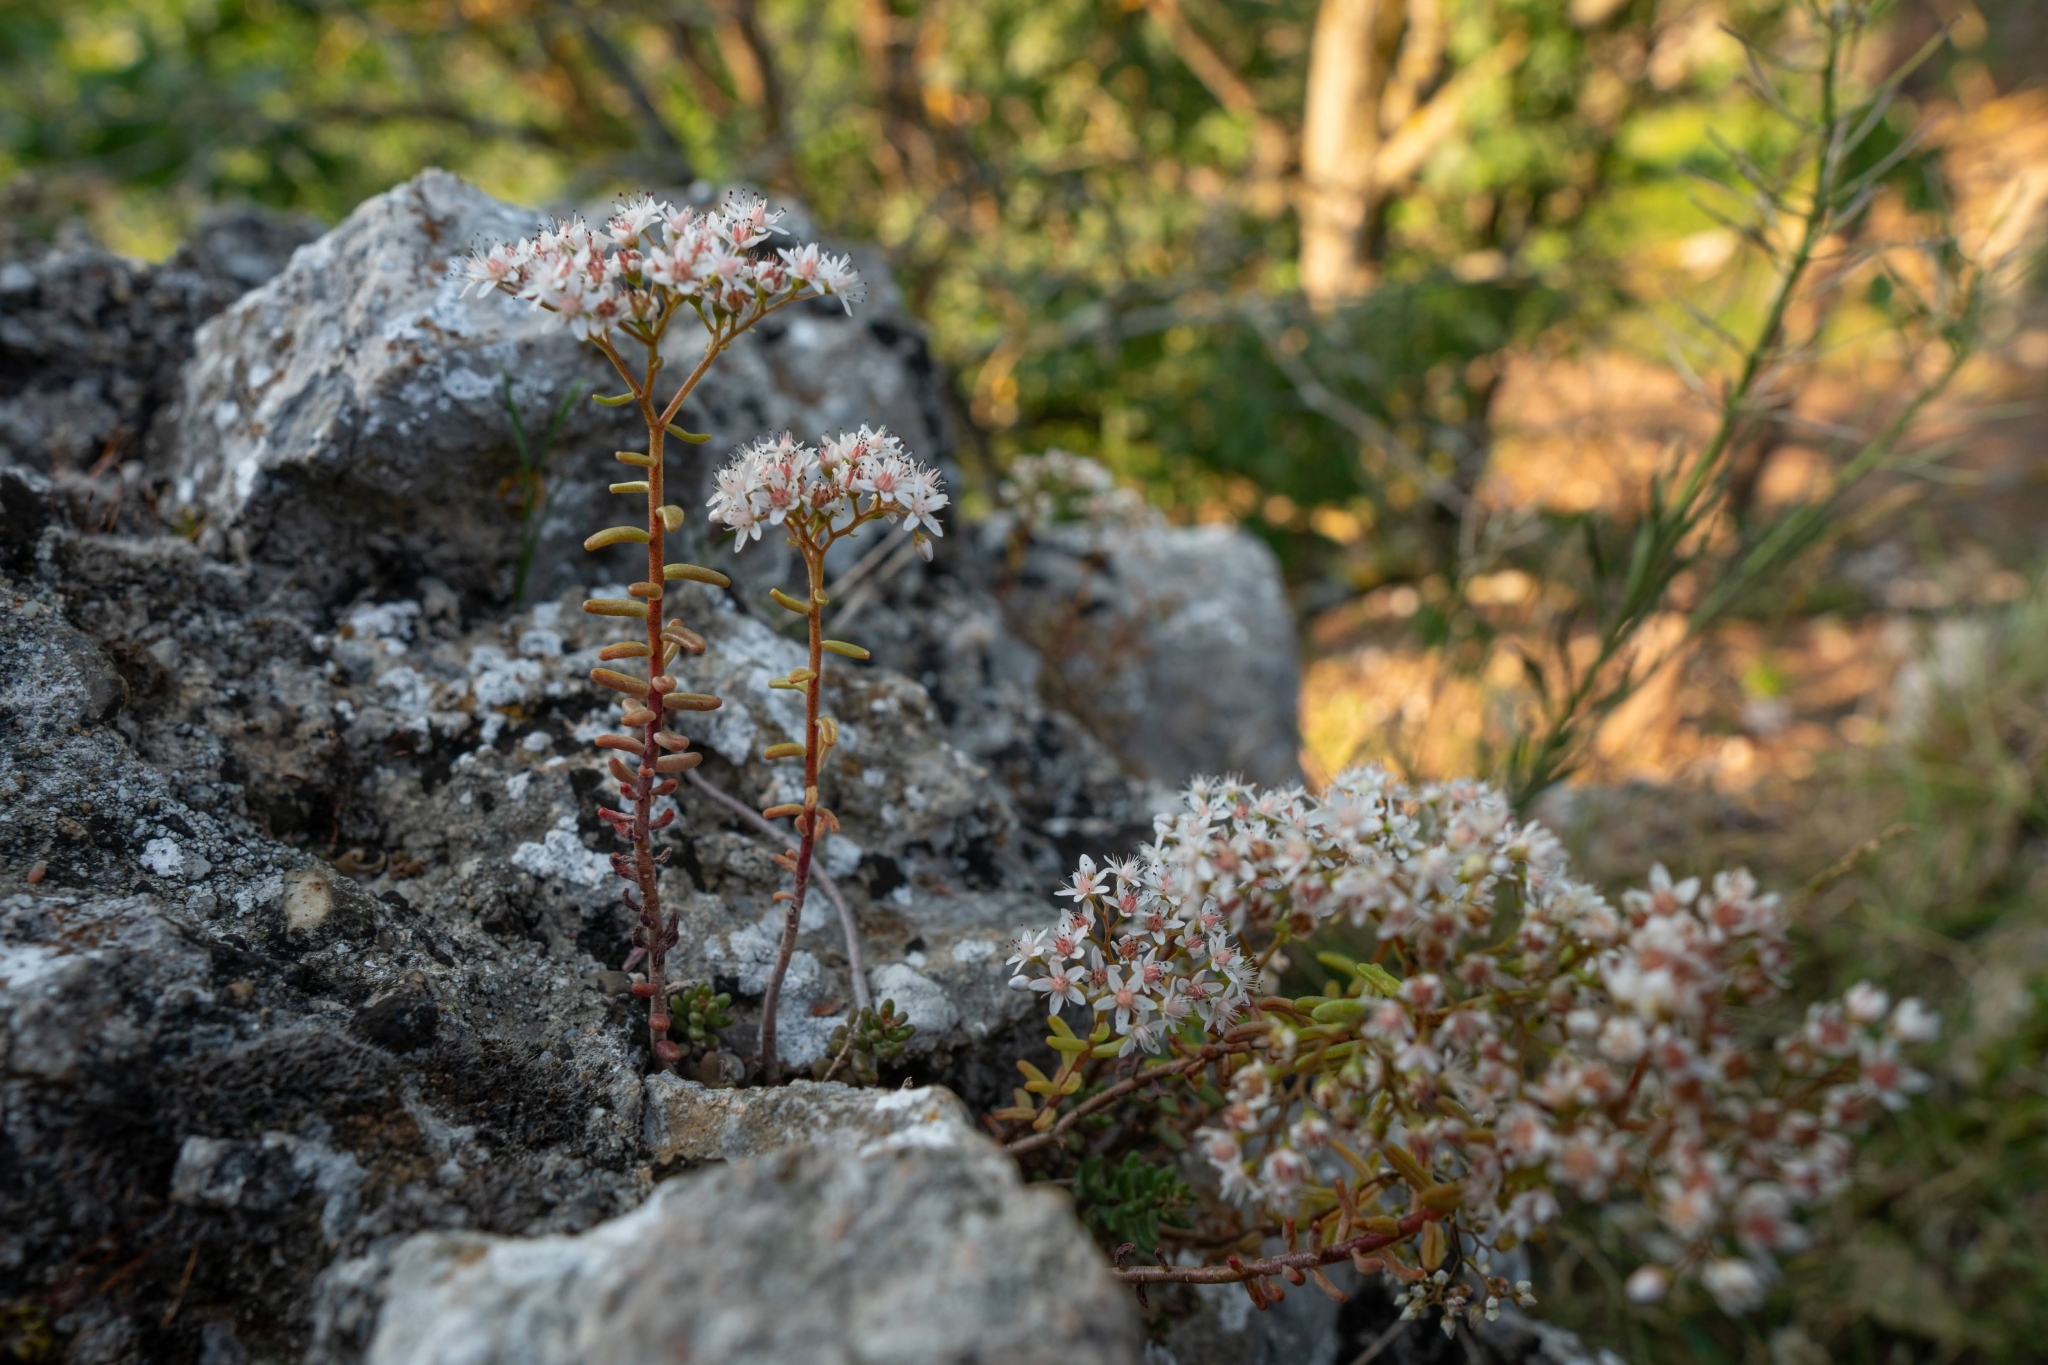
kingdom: Plantae
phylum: Tracheophyta
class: Magnoliopsida
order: Saxifragales
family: Crassulaceae
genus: Sedum
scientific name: Sedum album
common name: White stonecrop
